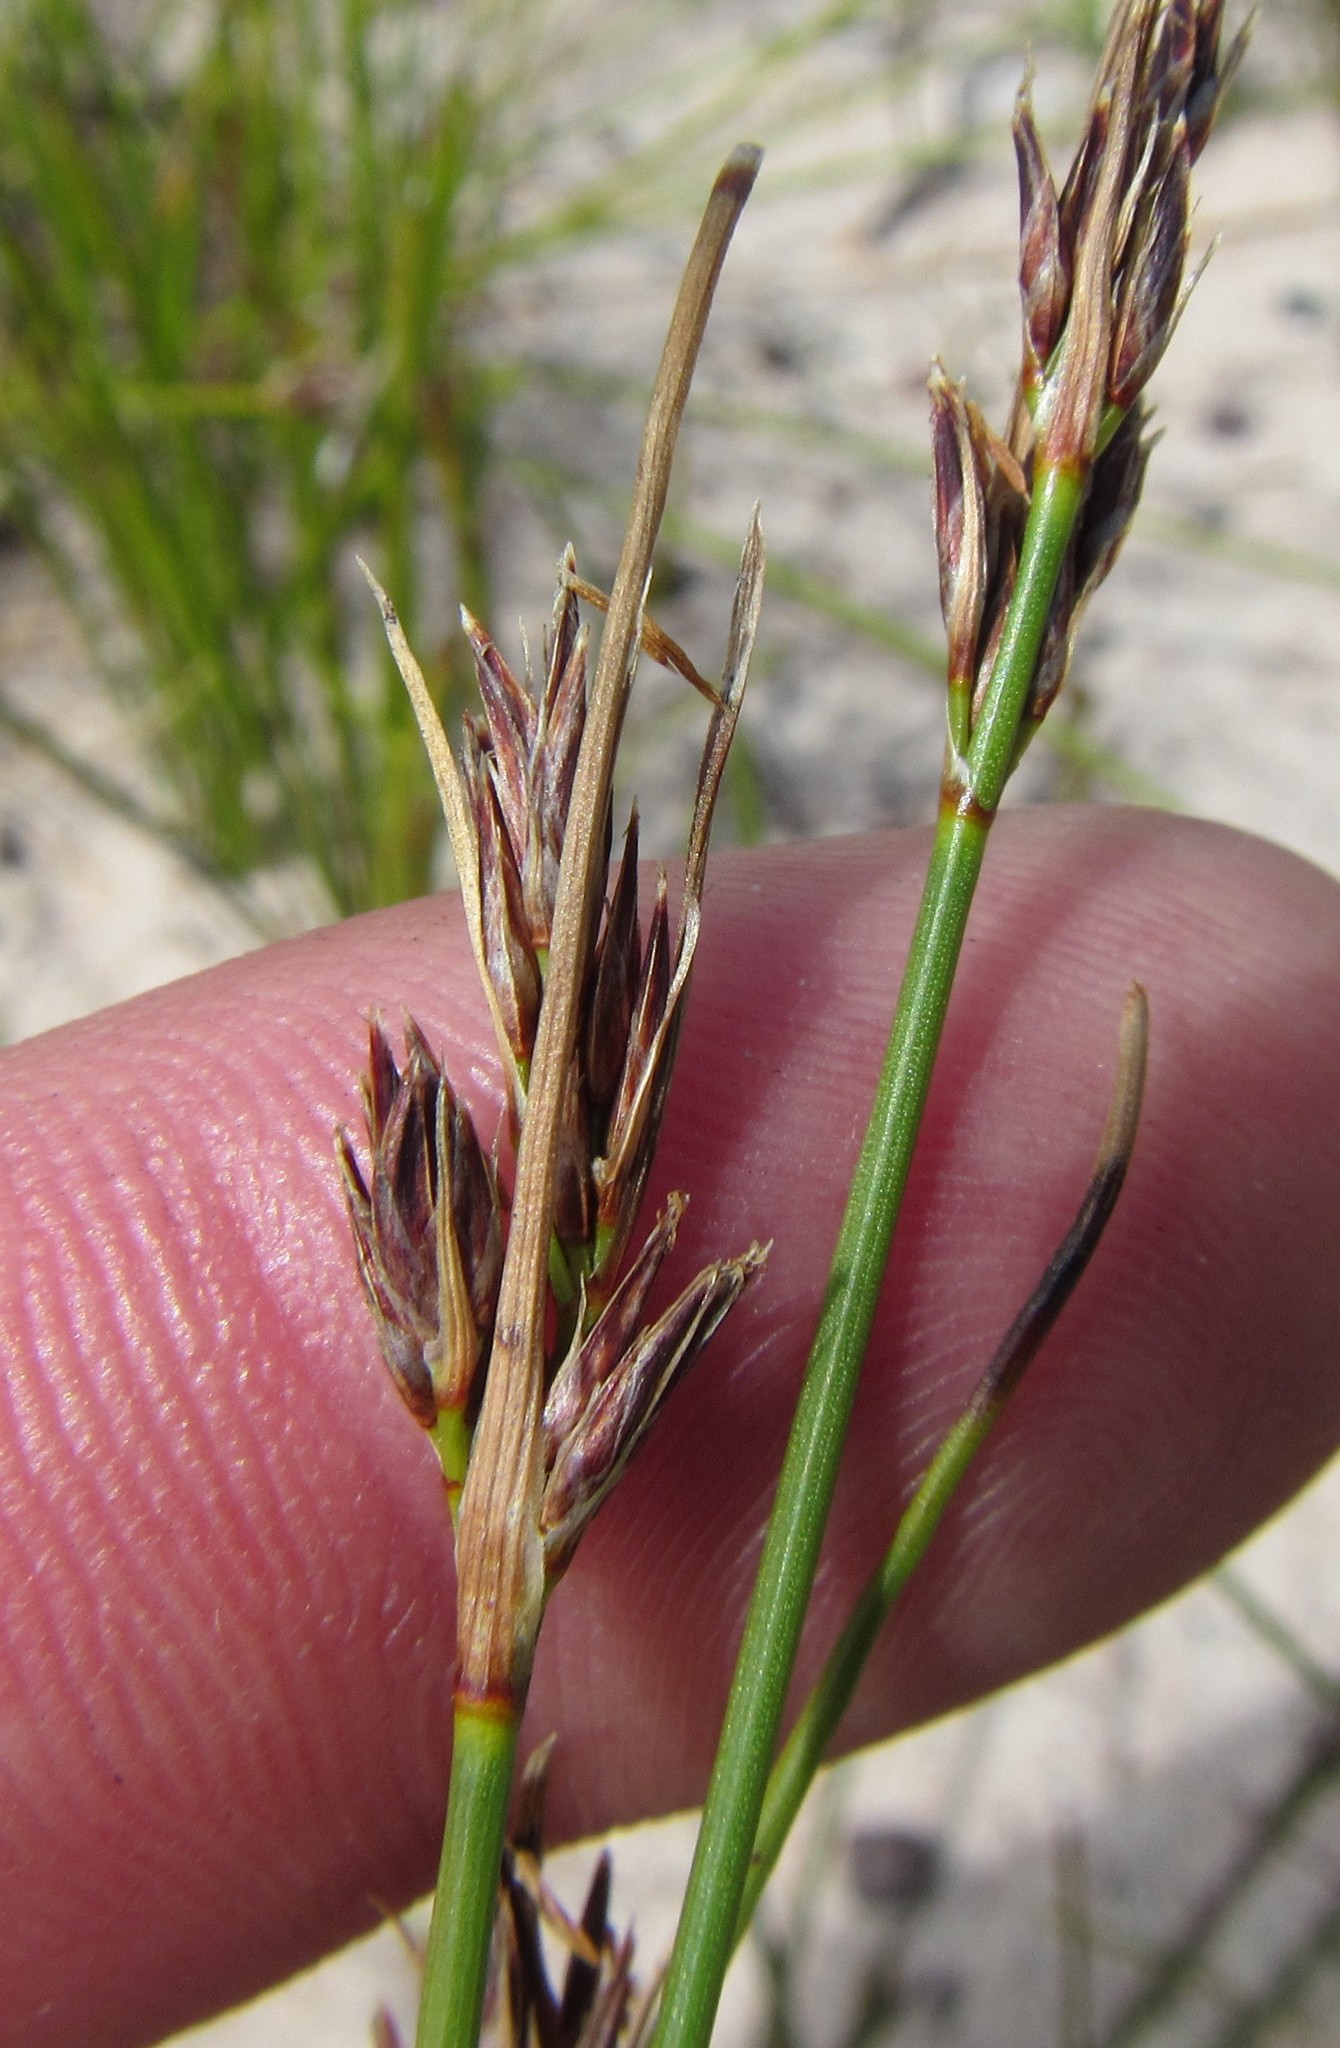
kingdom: Plantae
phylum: Tracheophyta
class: Liliopsida
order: Poales
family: Cyperaceae
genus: Schoenus
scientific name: Schoenus auritus
